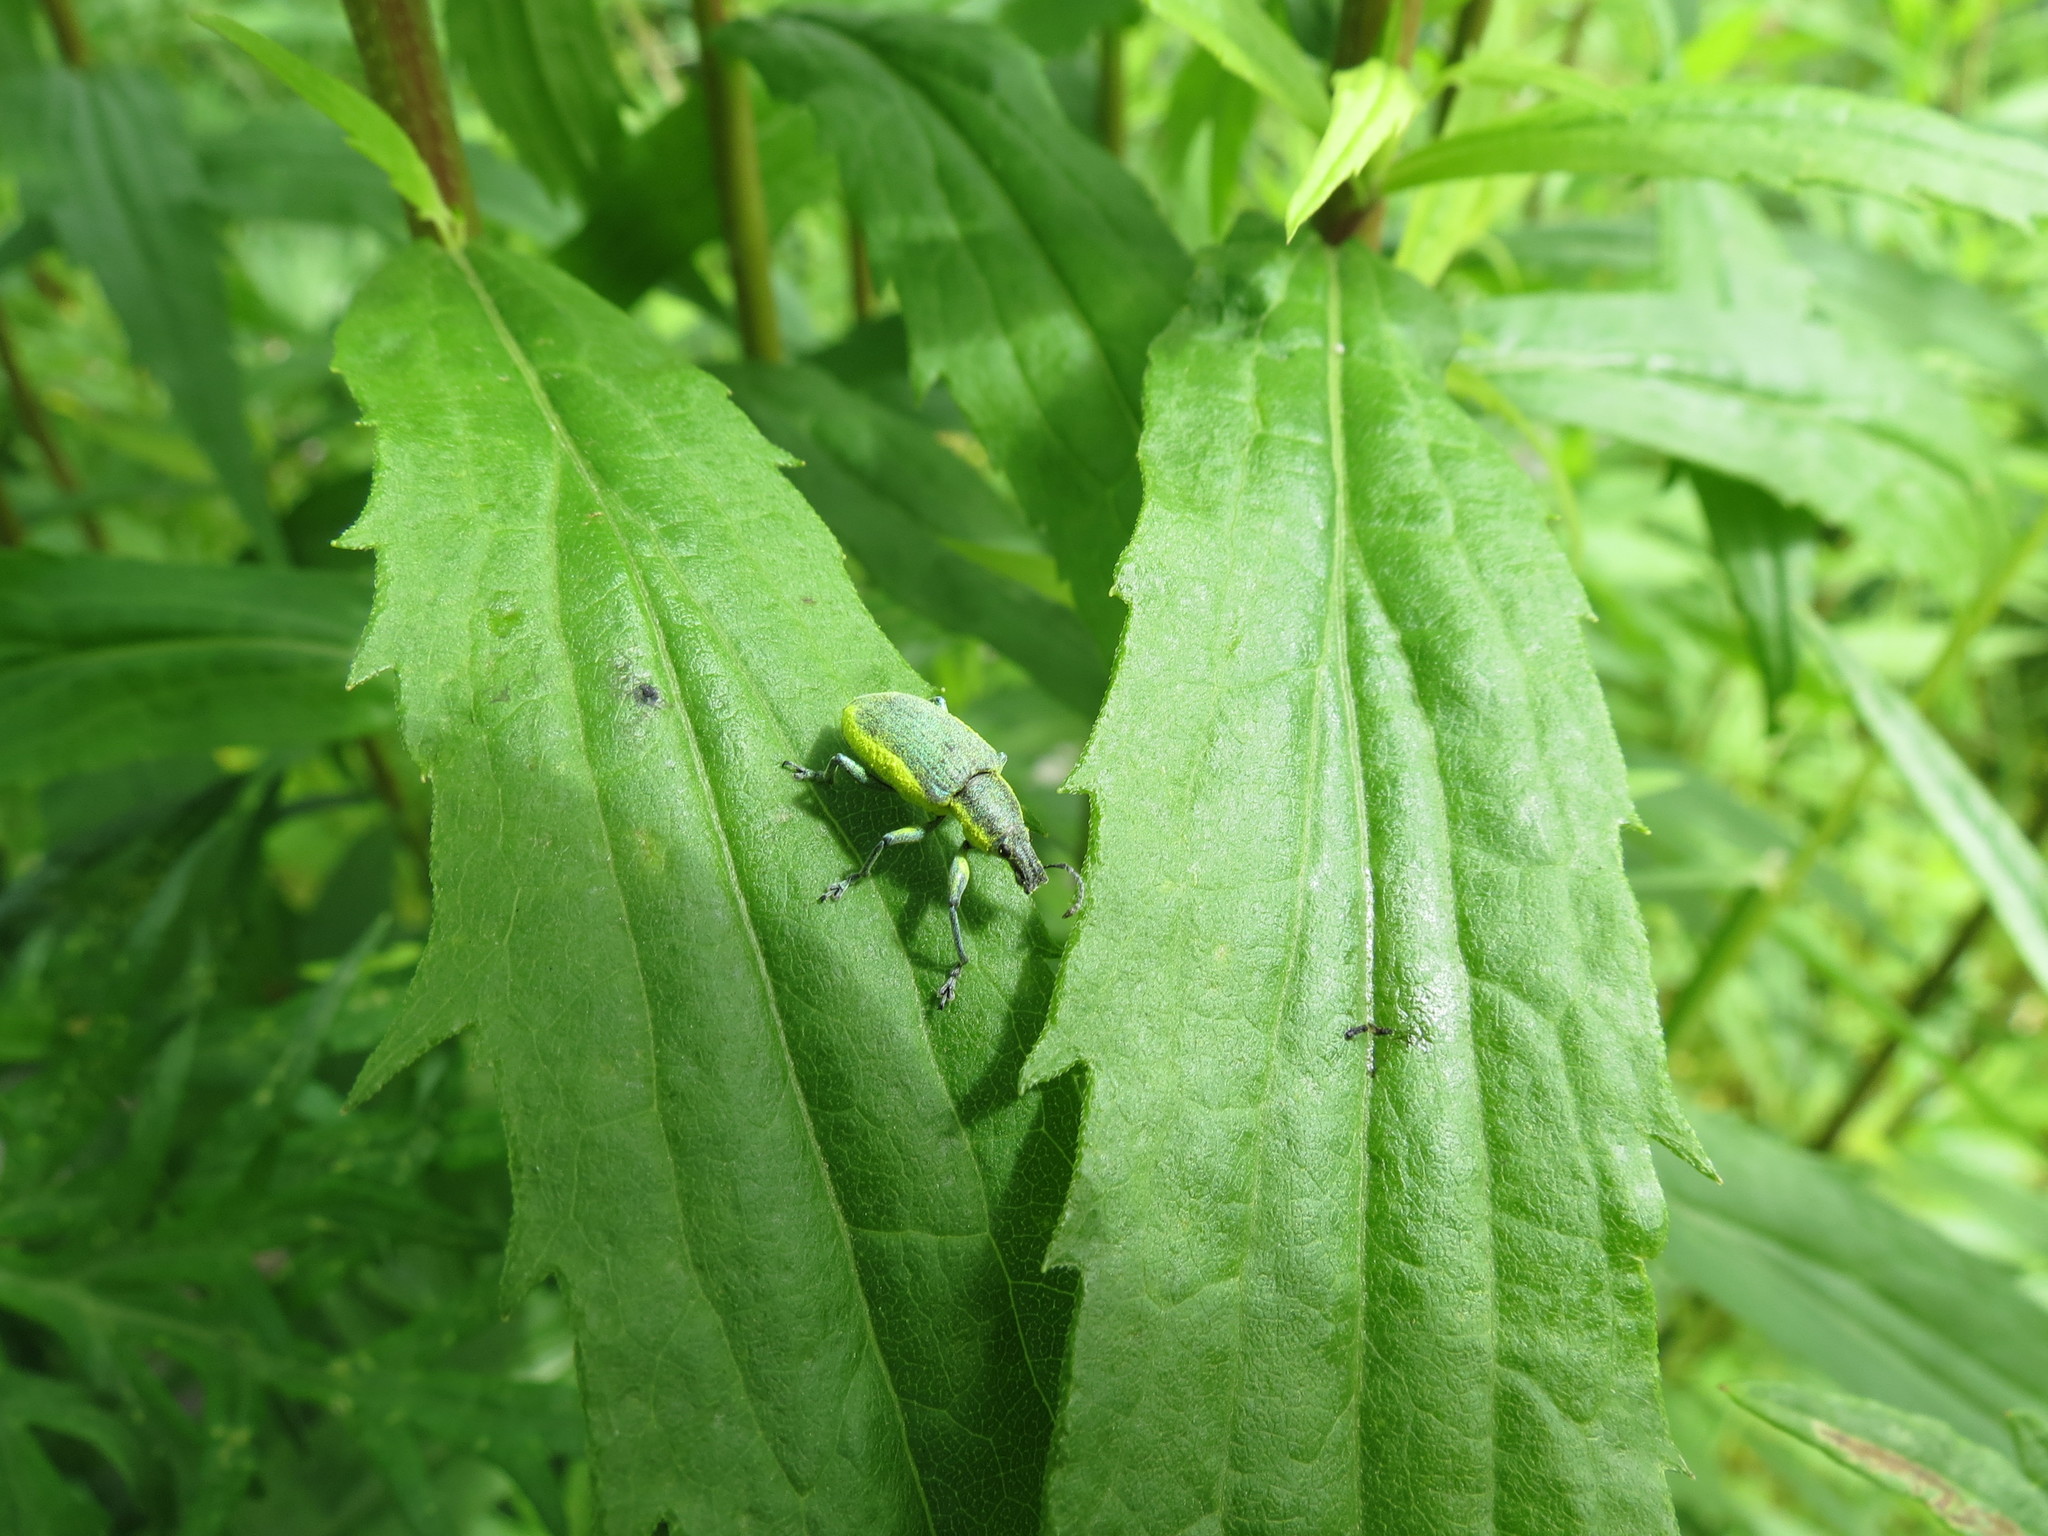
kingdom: Animalia
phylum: Arthropoda
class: Insecta
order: Coleoptera
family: Curculionidae
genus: Chlorophanus
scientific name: Chlorophanus viridis
